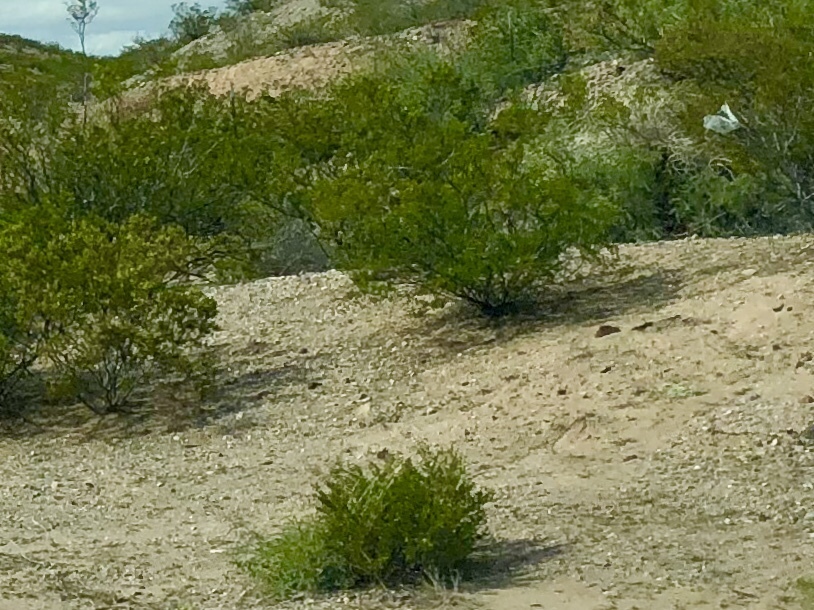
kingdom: Plantae
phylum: Tracheophyta
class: Magnoliopsida
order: Zygophyllales
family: Zygophyllaceae
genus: Larrea
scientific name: Larrea tridentata
